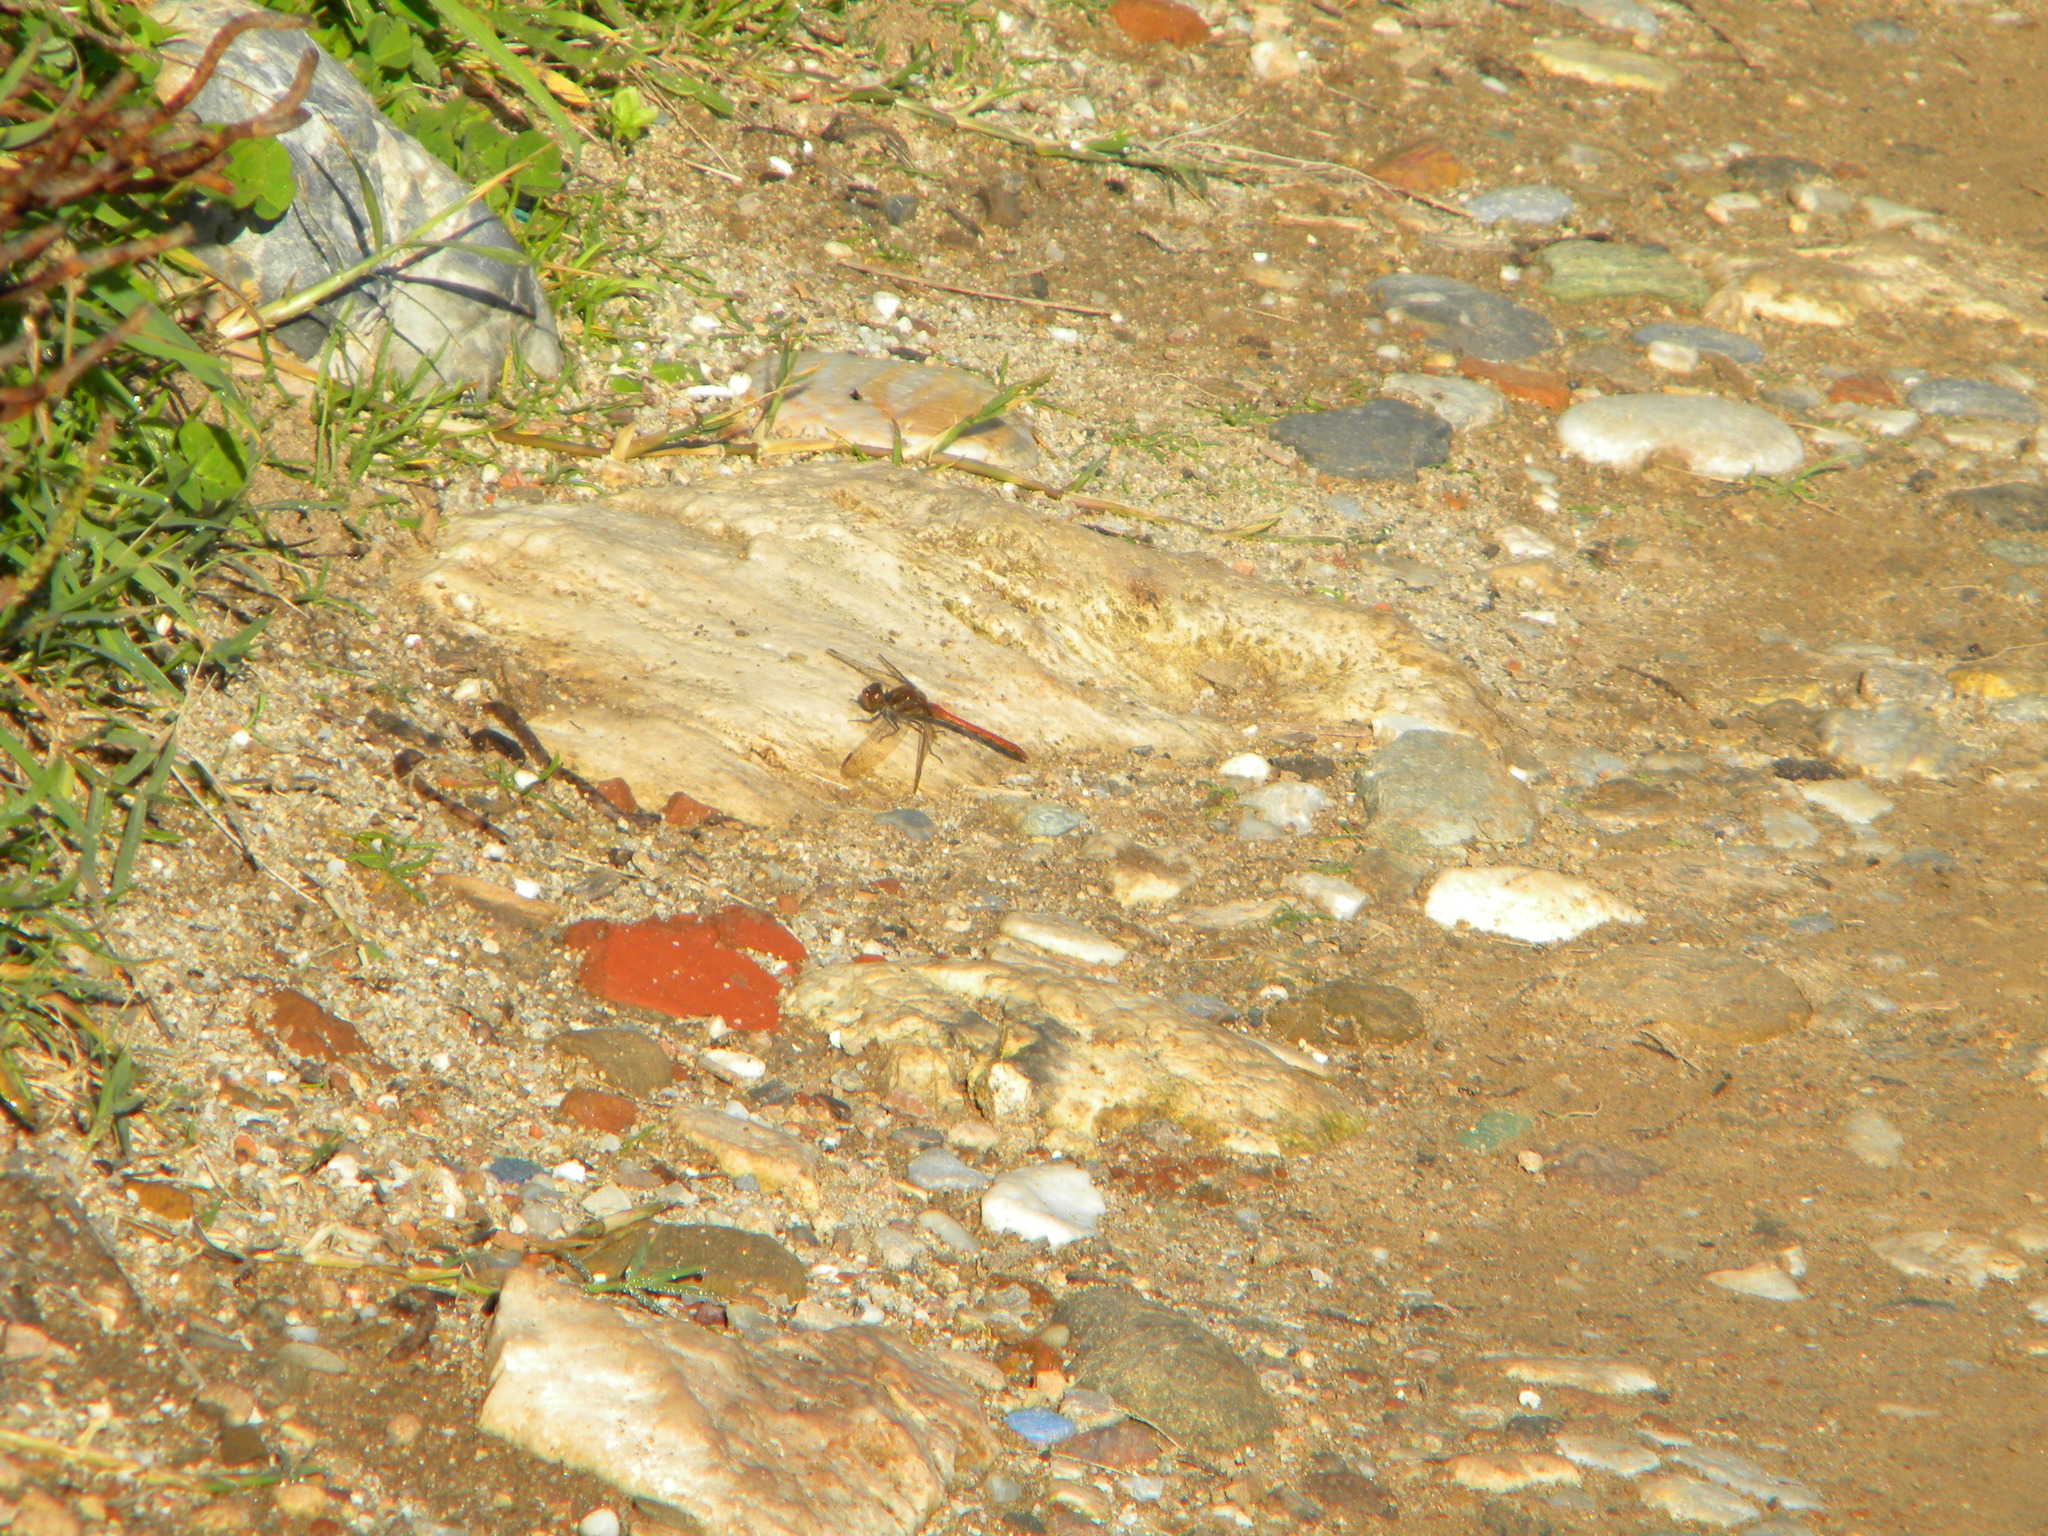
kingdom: Animalia
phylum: Arthropoda
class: Insecta
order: Odonata
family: Libellulidae
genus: Sympetrum
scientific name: Sympetrum striolatum
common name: Common darter
